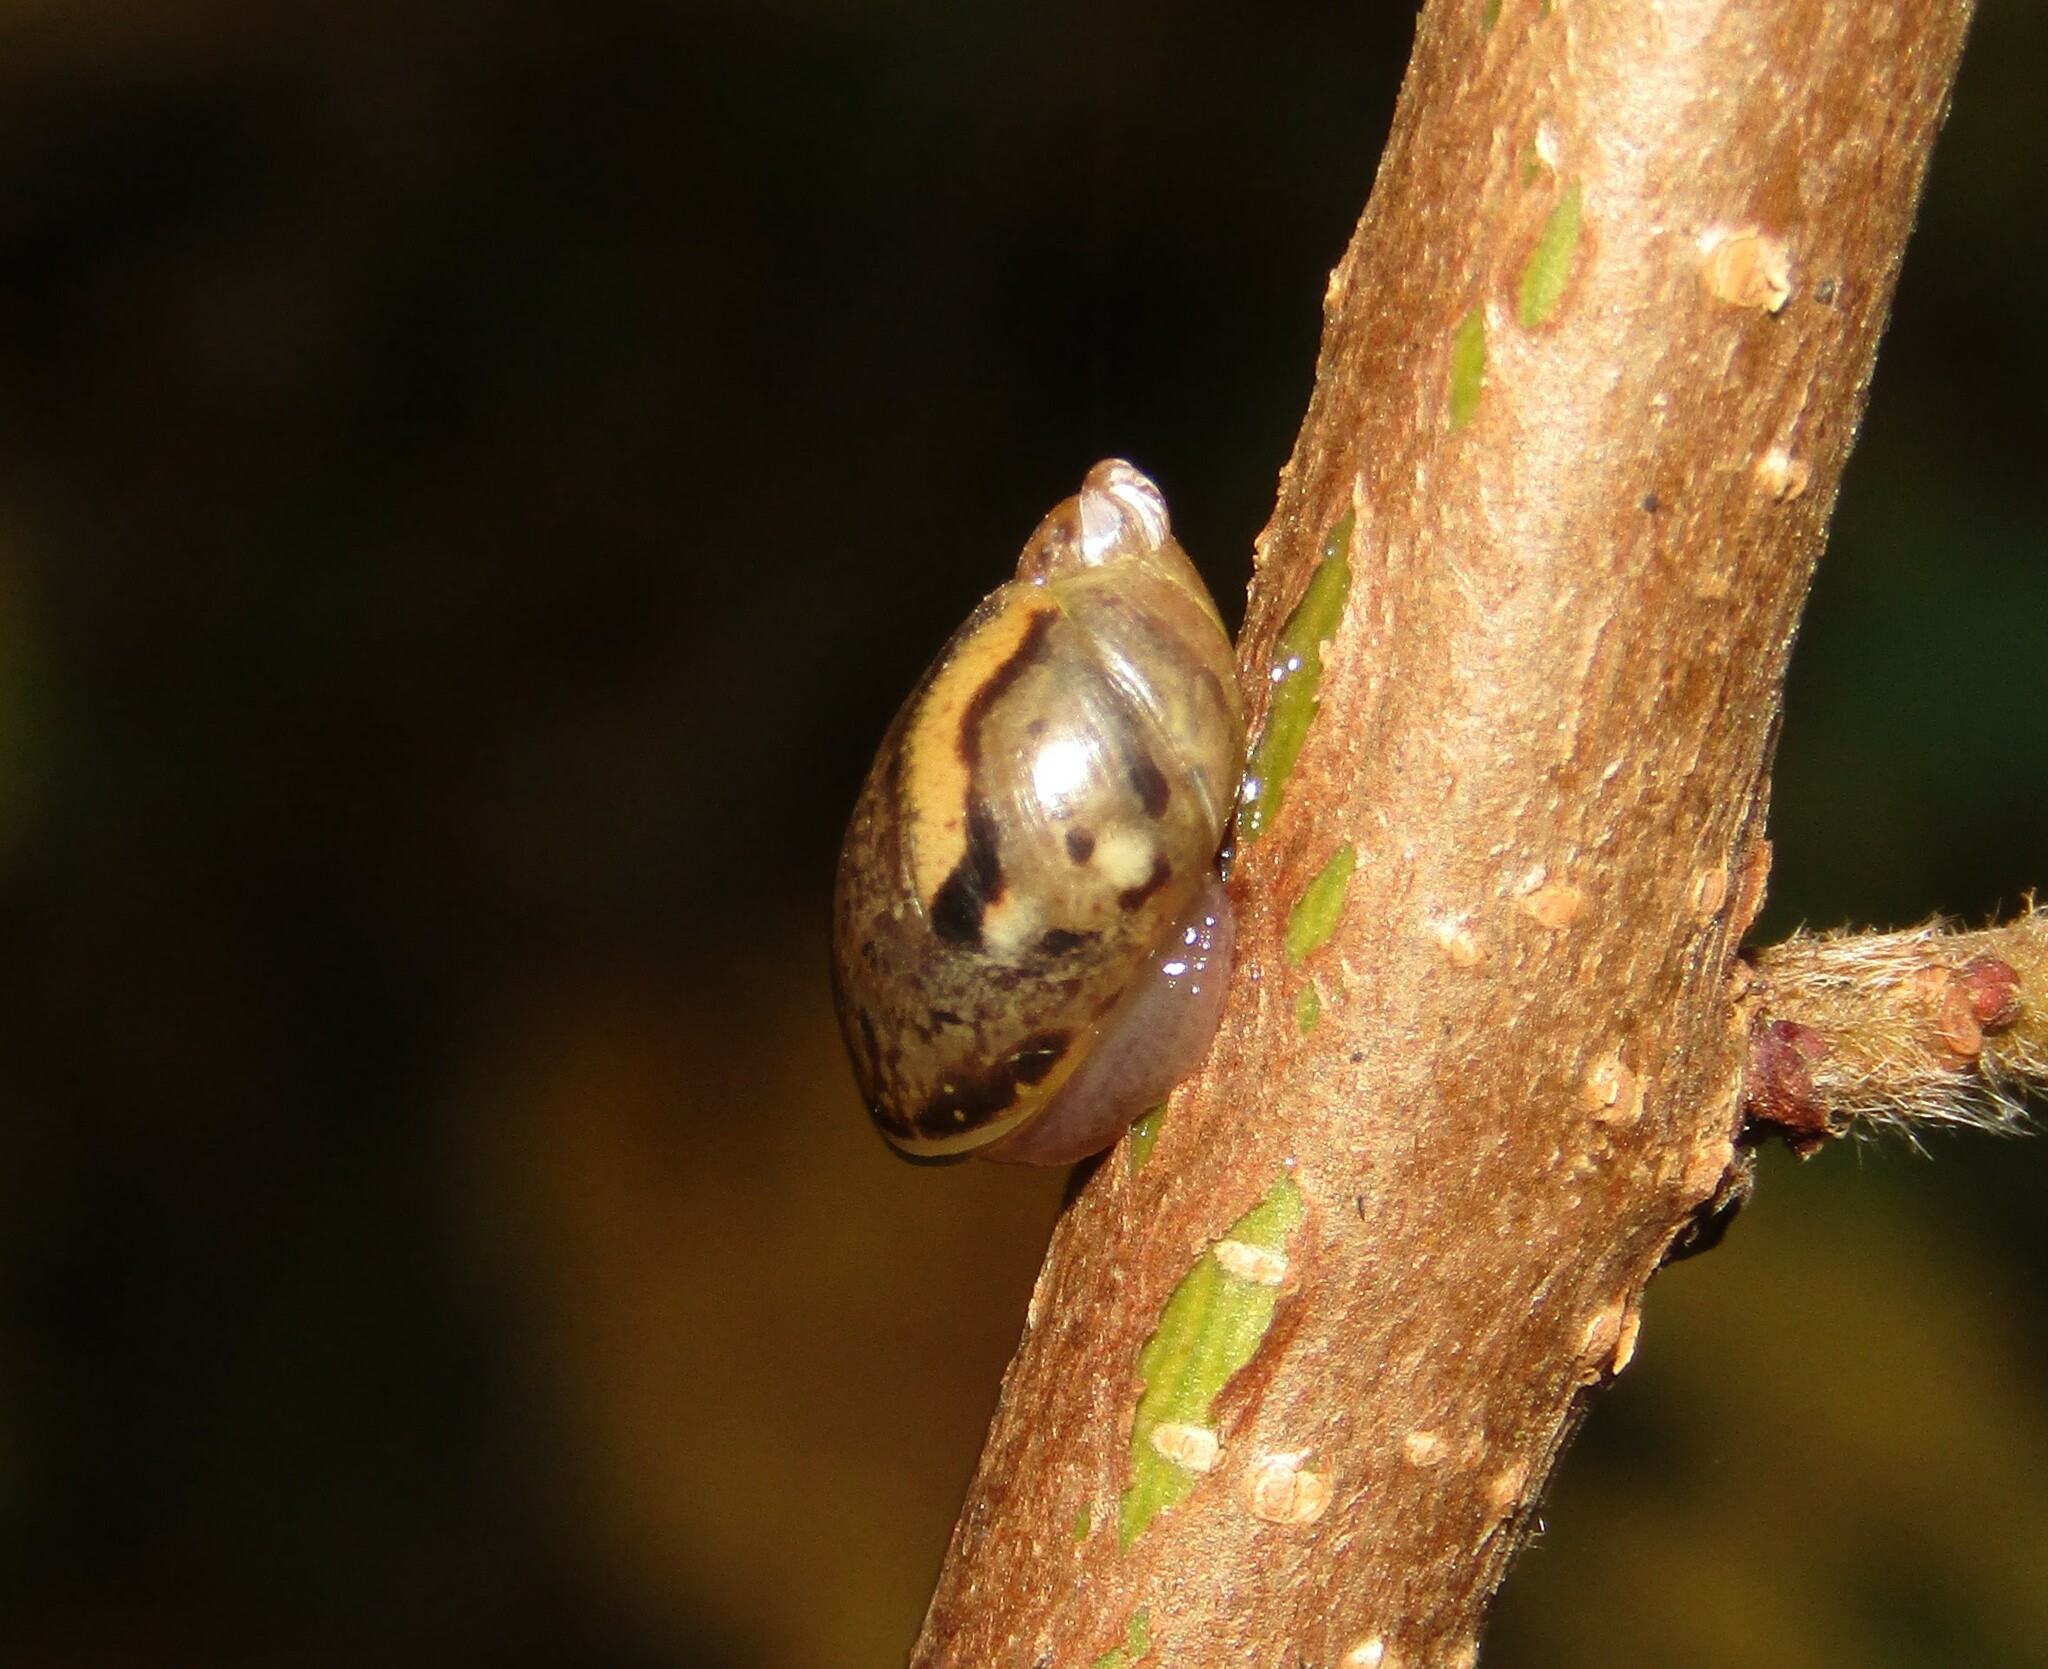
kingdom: Animalia
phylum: Mollusca
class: Gastropoda
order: Stylommatophora
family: Succineidae
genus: Succinea
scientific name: Succinea putris
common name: European ambersnail
